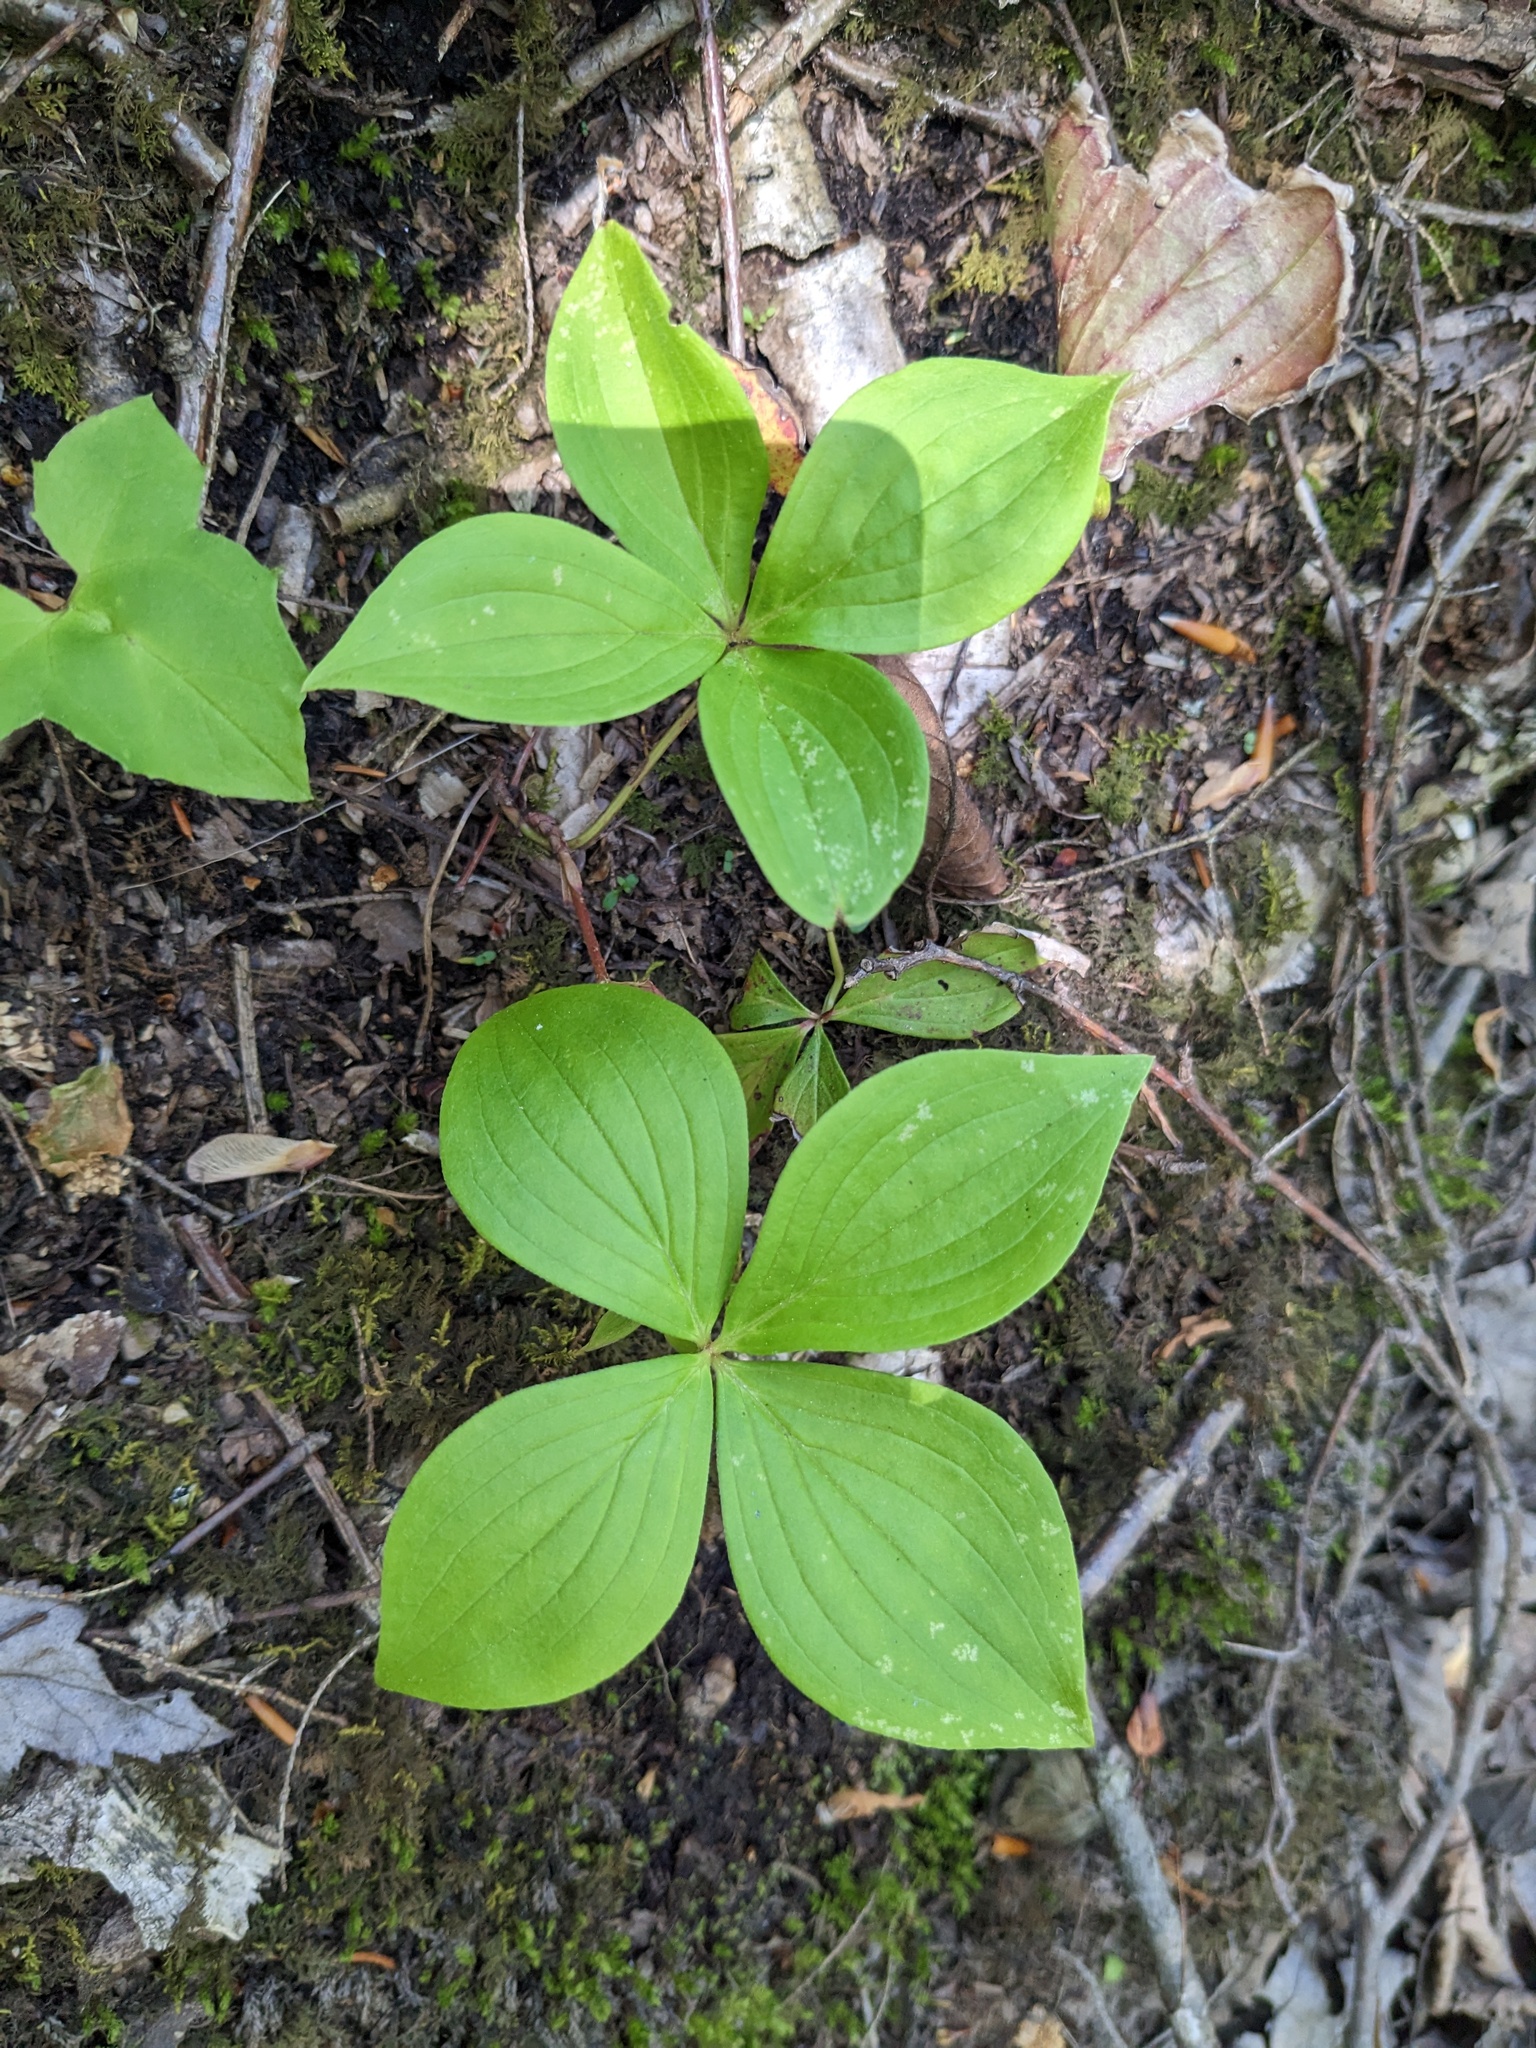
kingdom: Plantae
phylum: Tracheophyta
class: Magnoliopsida
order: Cornales
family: Cornaceae
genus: Cornus
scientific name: Cornus canadensis
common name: Creeping dogwood
